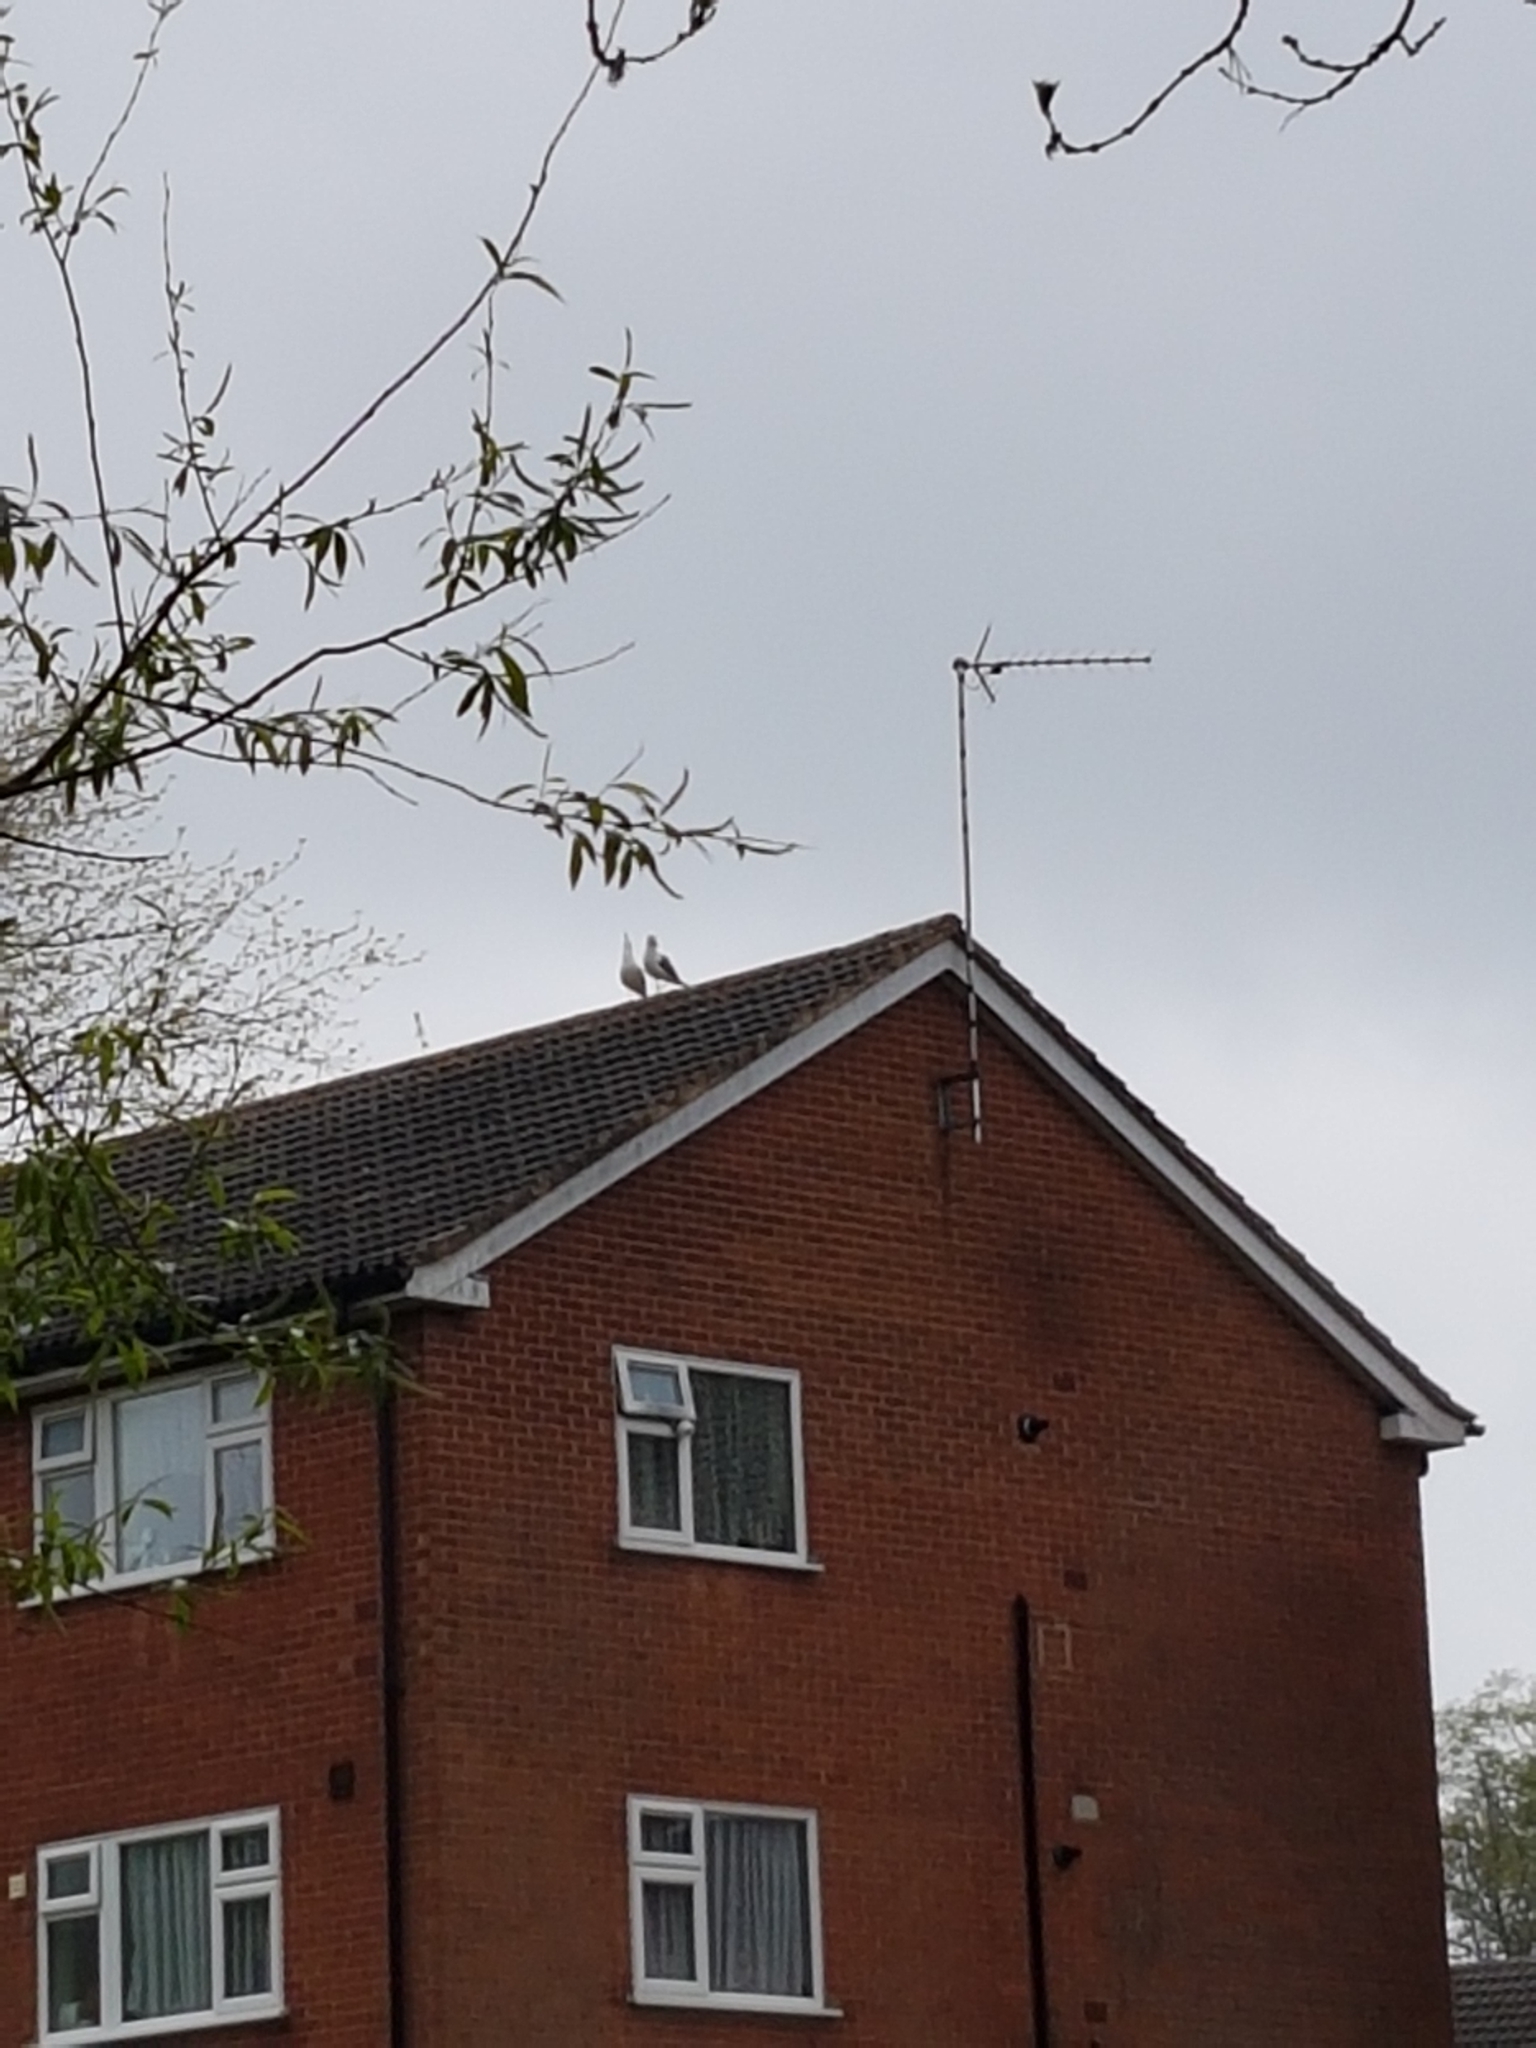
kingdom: Animalia
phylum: Chordata
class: Aves
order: Charadriiformes
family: Laridae
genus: Larus
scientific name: Larus fuscus
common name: Lesser black-backed gull
